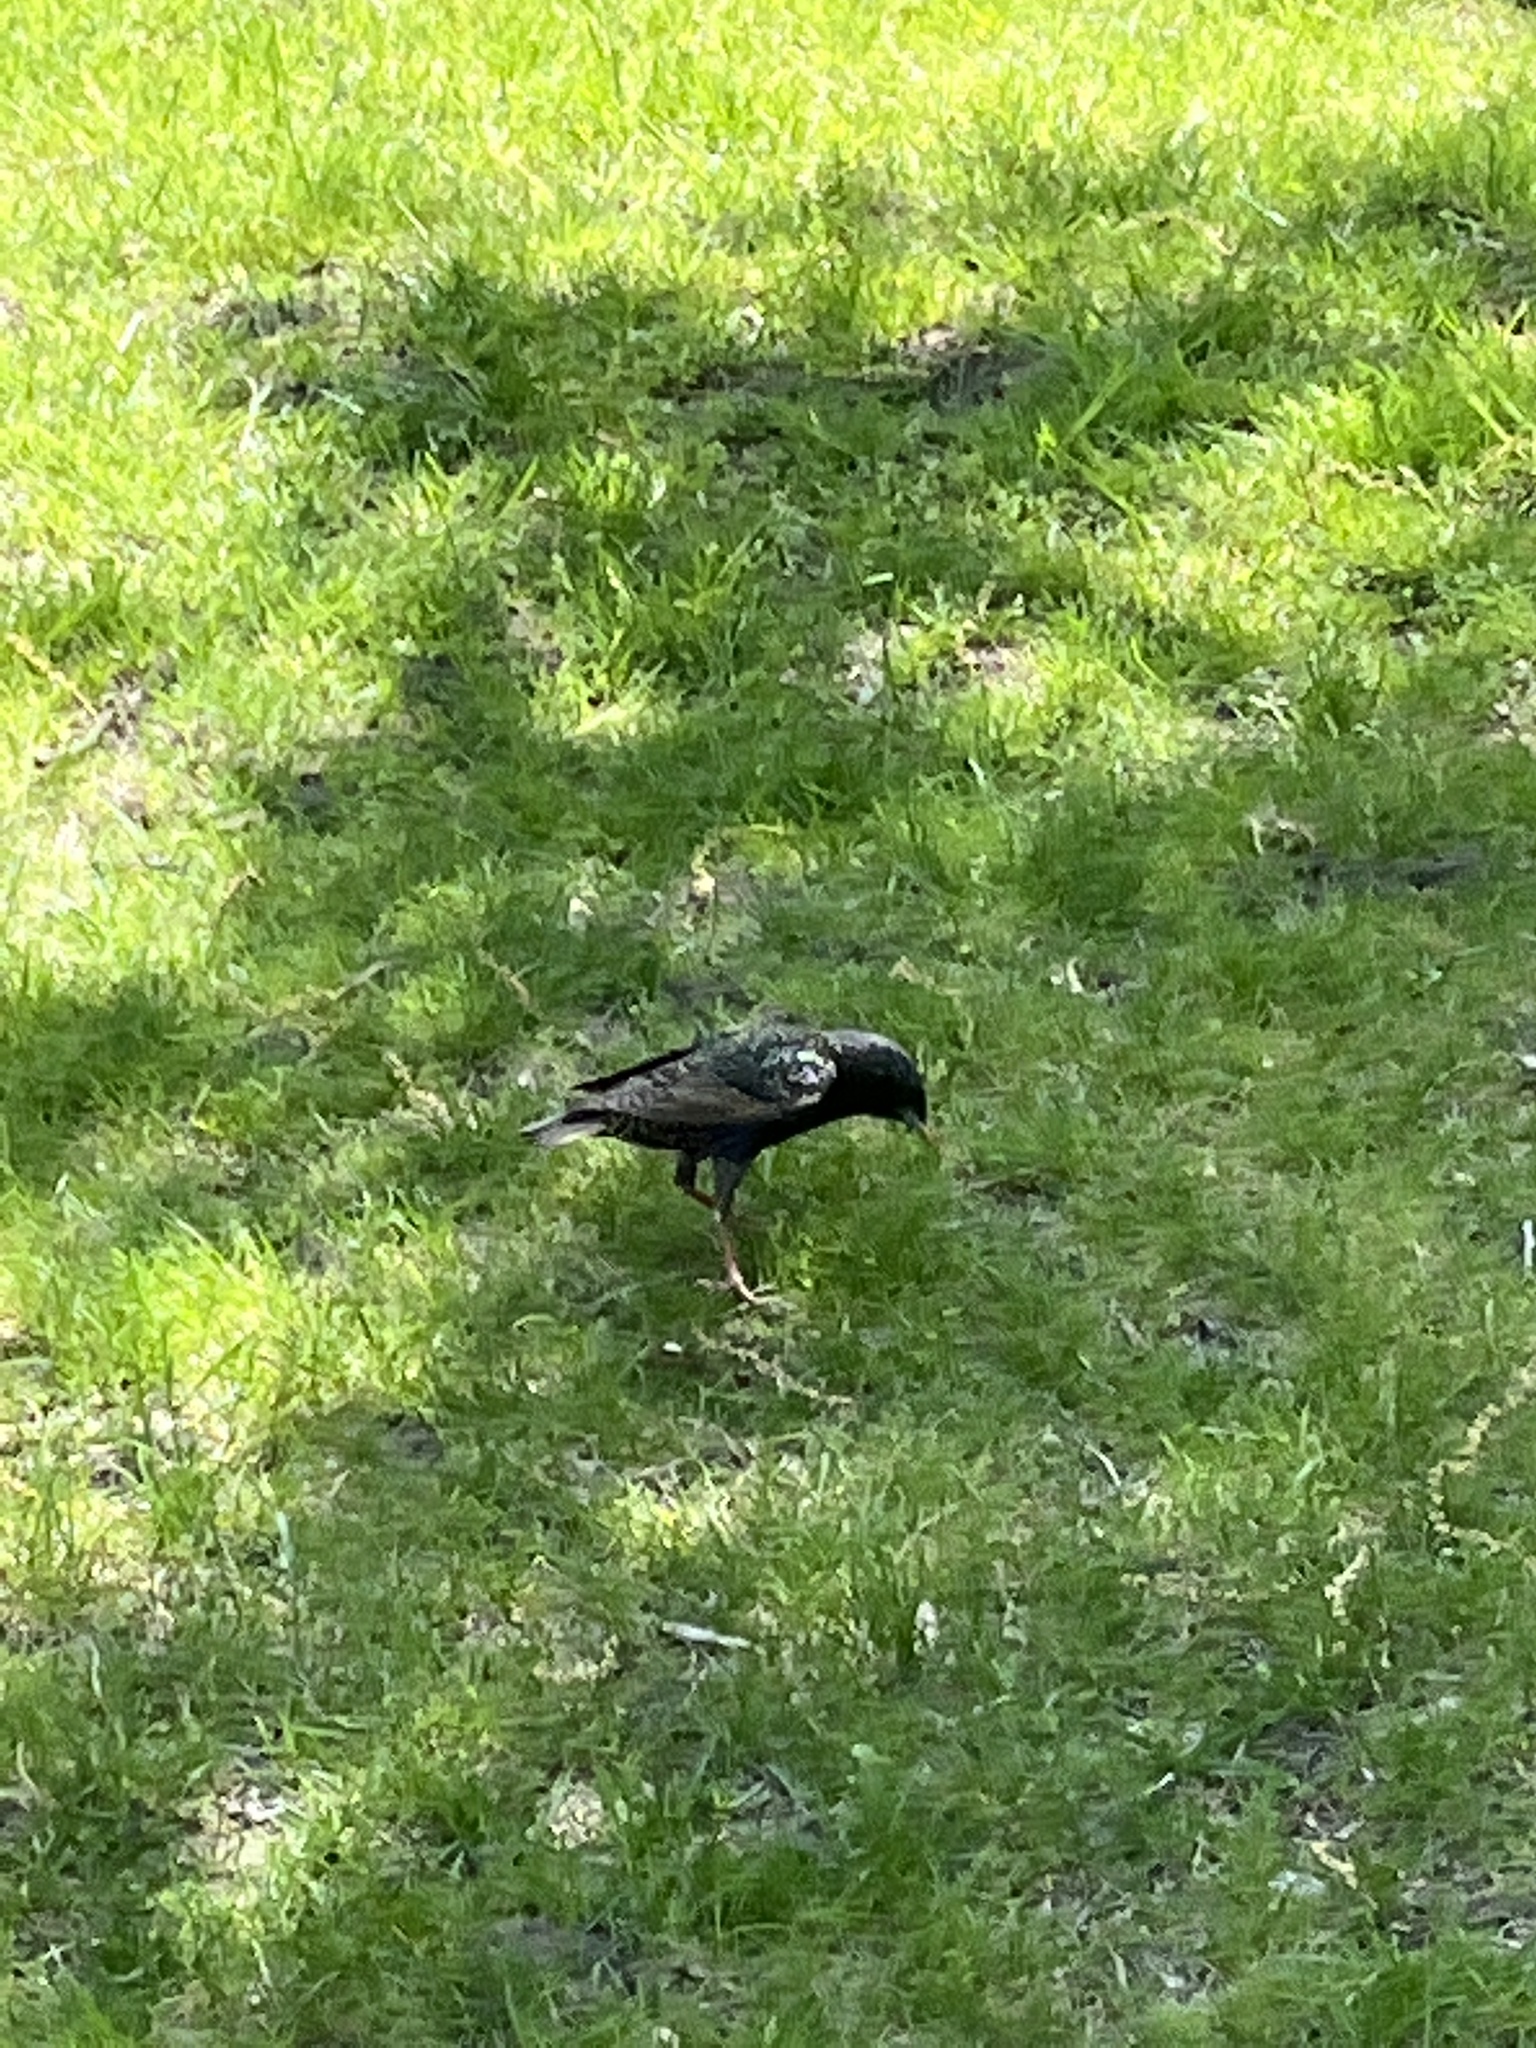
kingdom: Animalia
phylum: Chordata
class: Aves
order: Passeriformes
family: Sturnidae
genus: Sturnus
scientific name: Sturnus vulgaris
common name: Common starling
